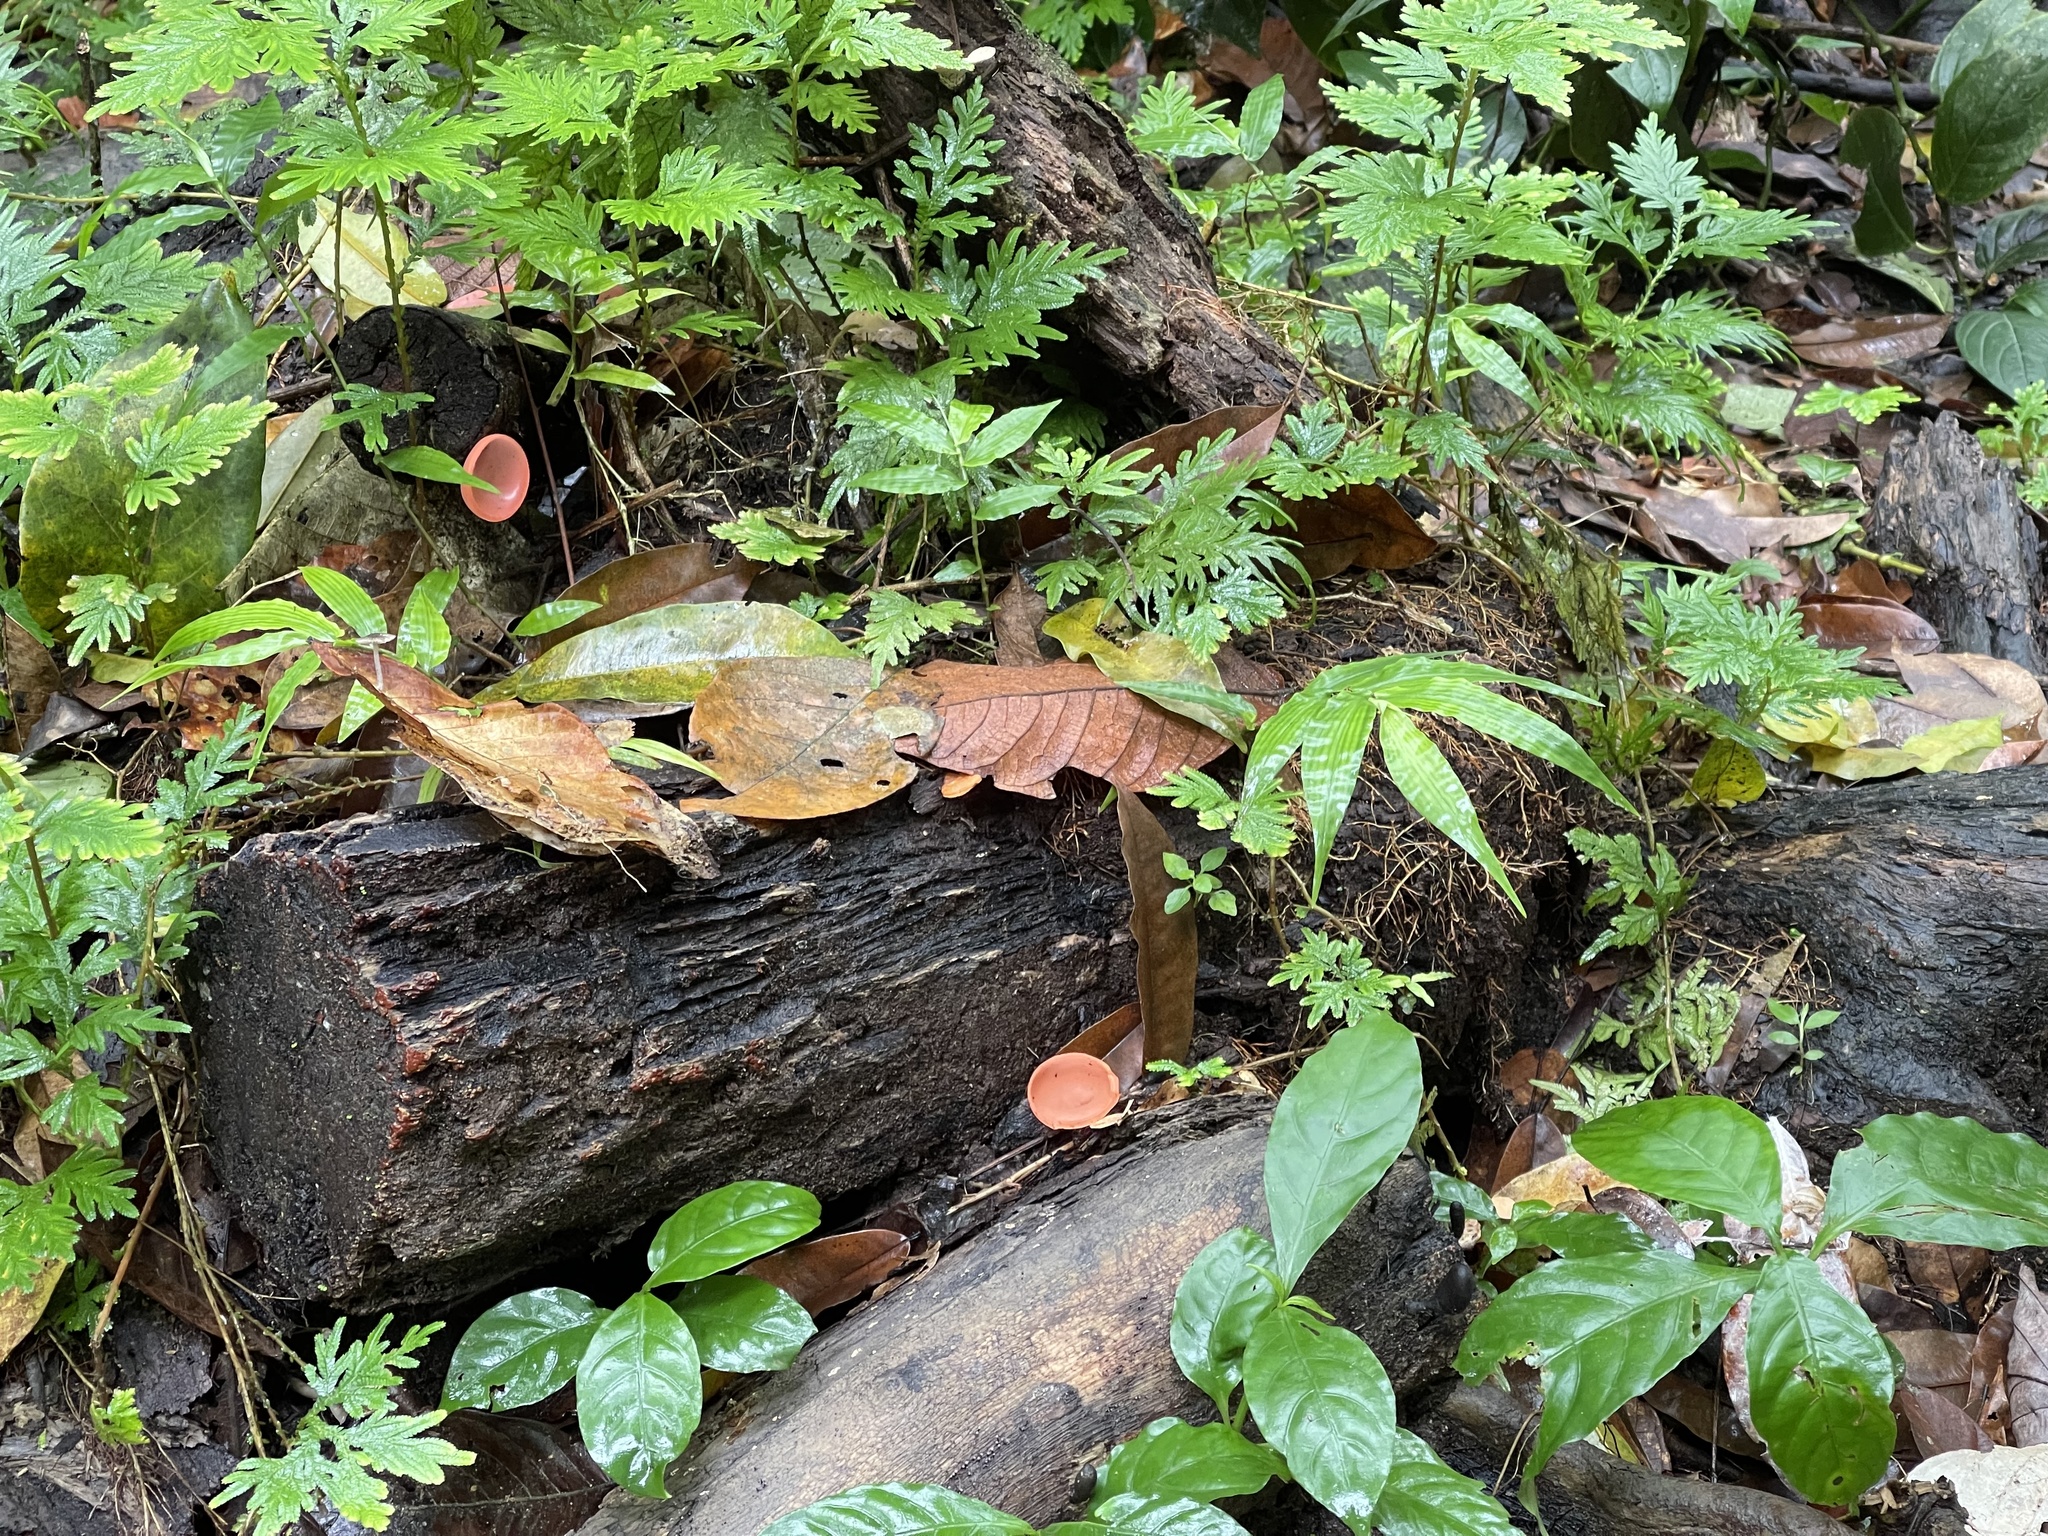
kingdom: Fungi
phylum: Ascomycota
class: Pezizomycetes
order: Pezizales
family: Sarcoscyphaceae
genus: Cookeina
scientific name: Cookeina speciosa
